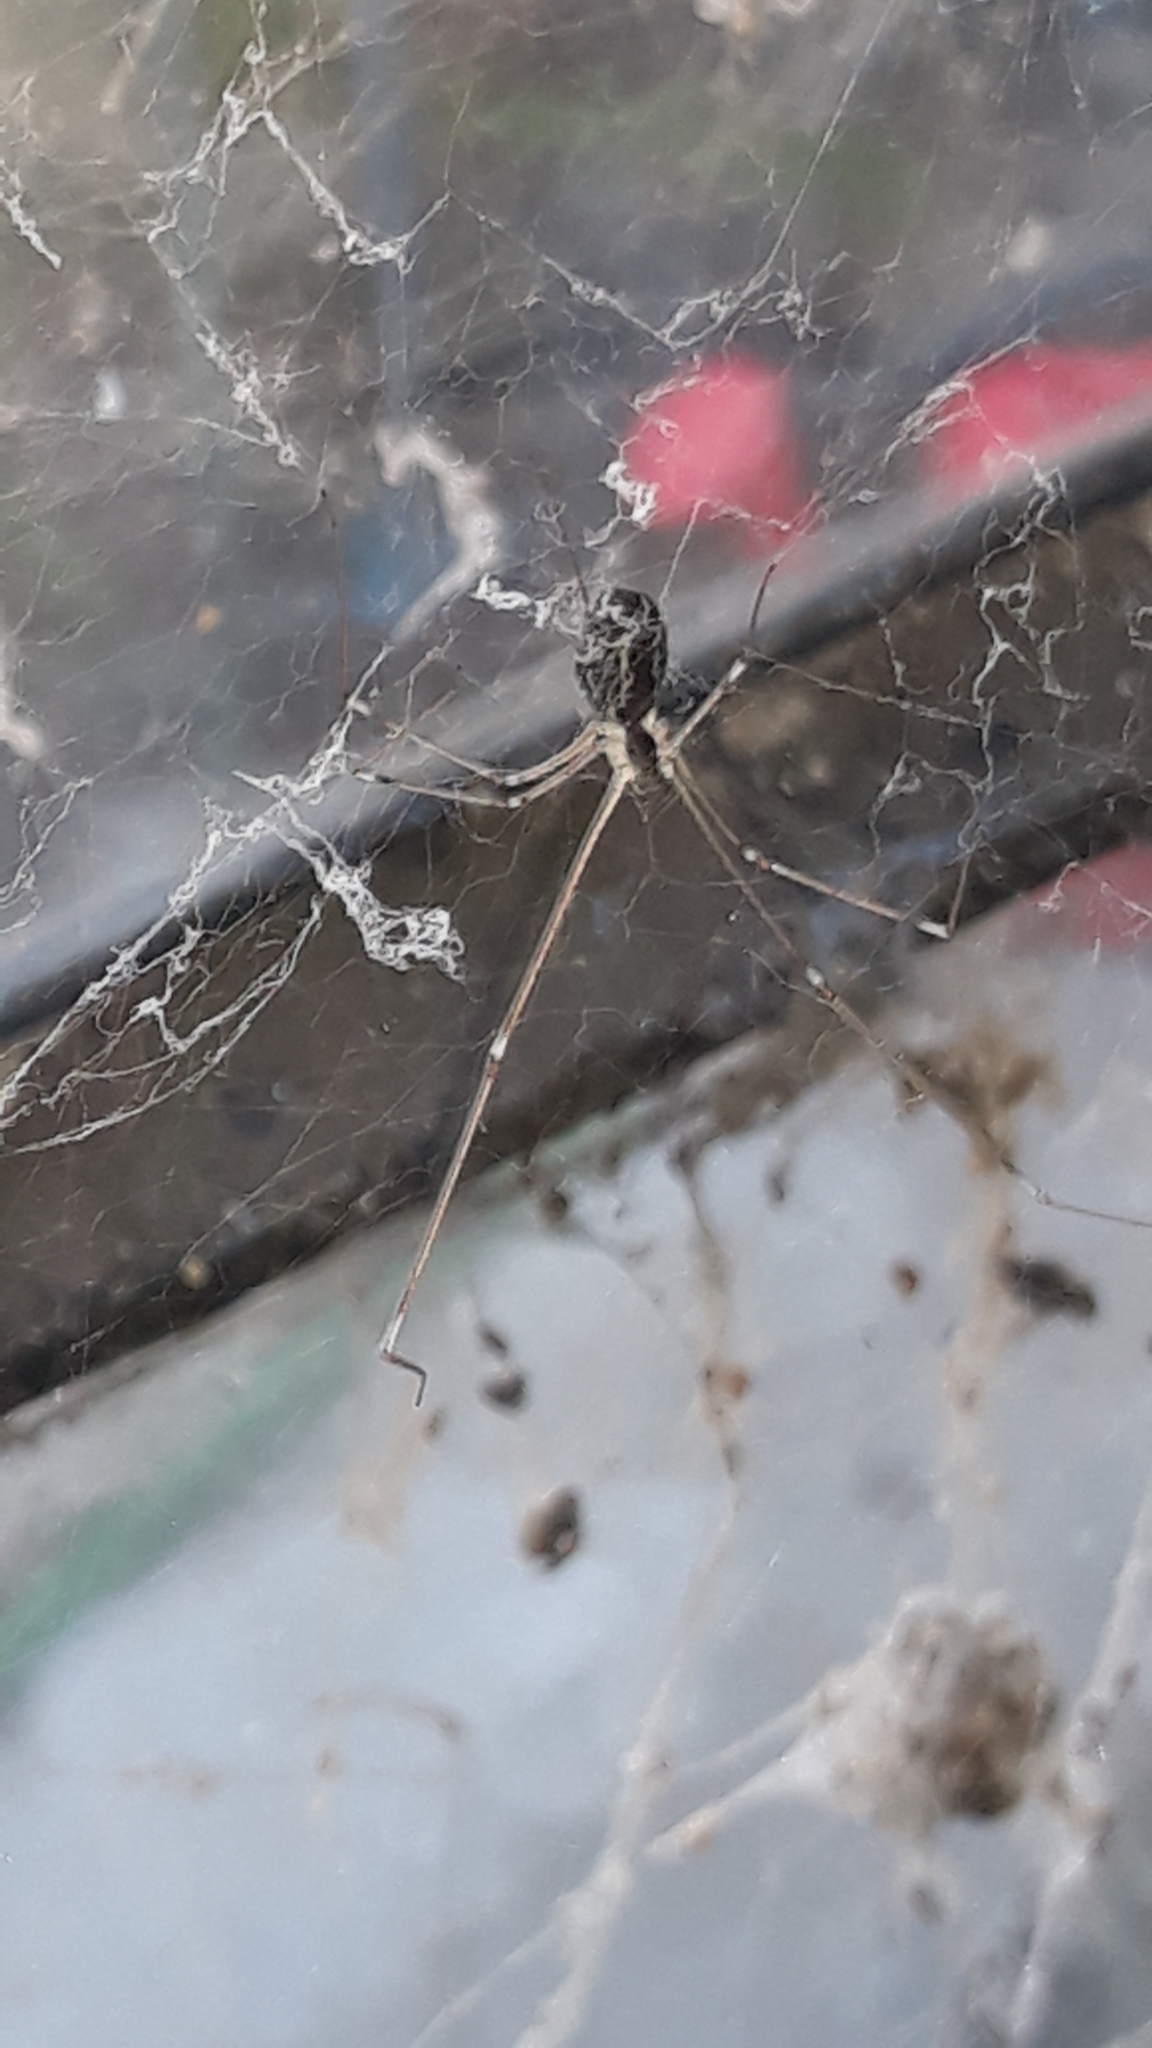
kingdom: Animalia
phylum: Arthropoda
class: Arachnida
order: Araneae
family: Pholcidae
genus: Holocnemus
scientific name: Holocnemus pluchei
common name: Marbled cellar spider
